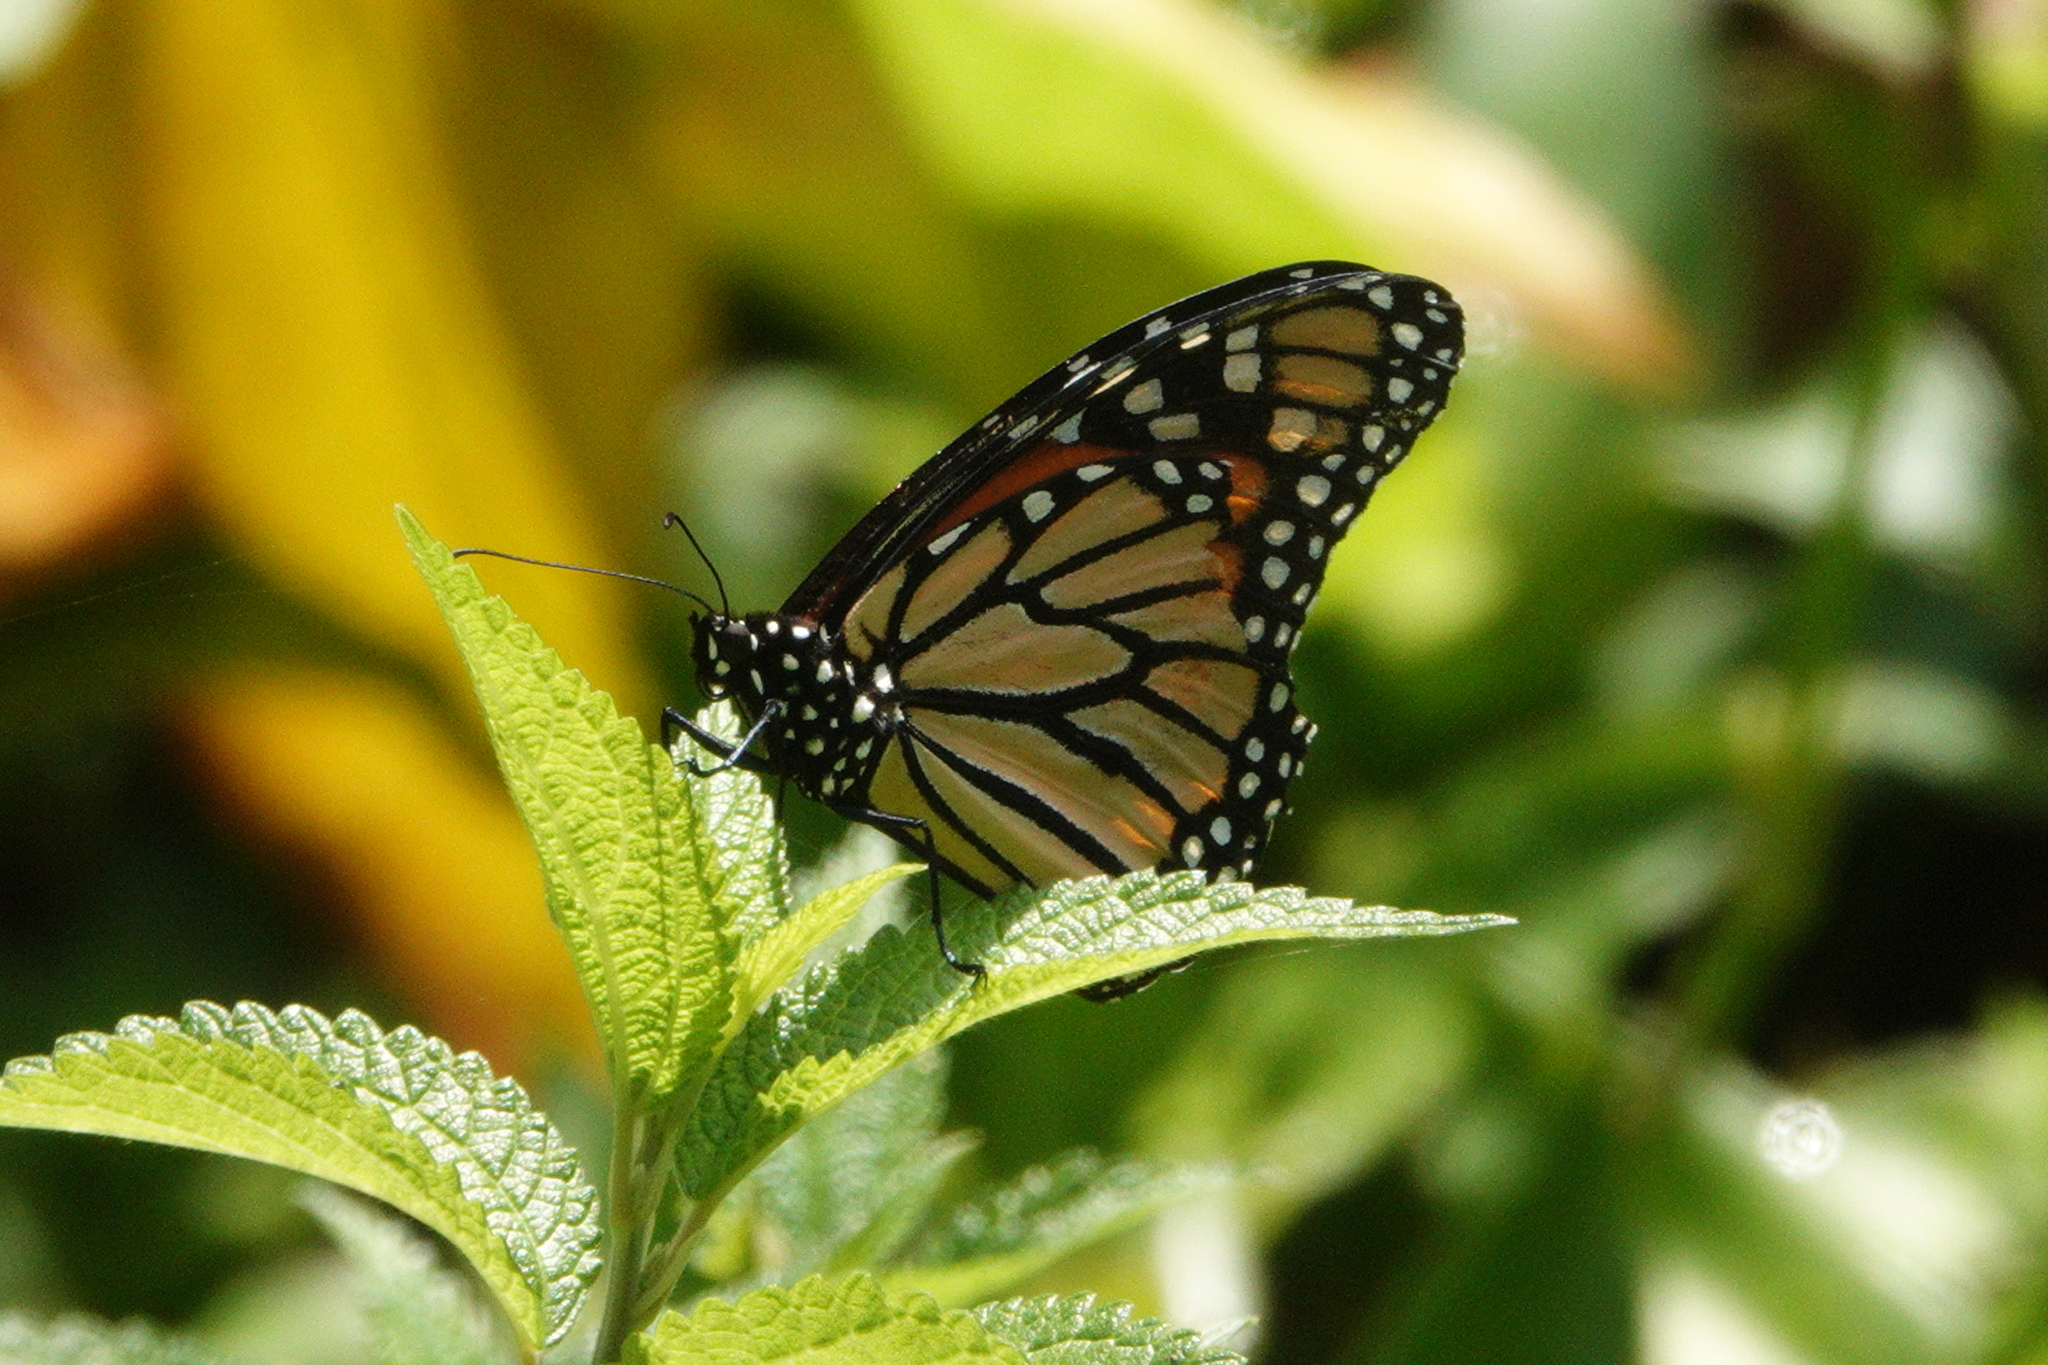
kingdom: Animalia
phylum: Arthropoda
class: Insecta
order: Lepidoptera
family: Nymphalidae
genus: Danaus
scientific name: Danaus plexippus
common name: Monarch
